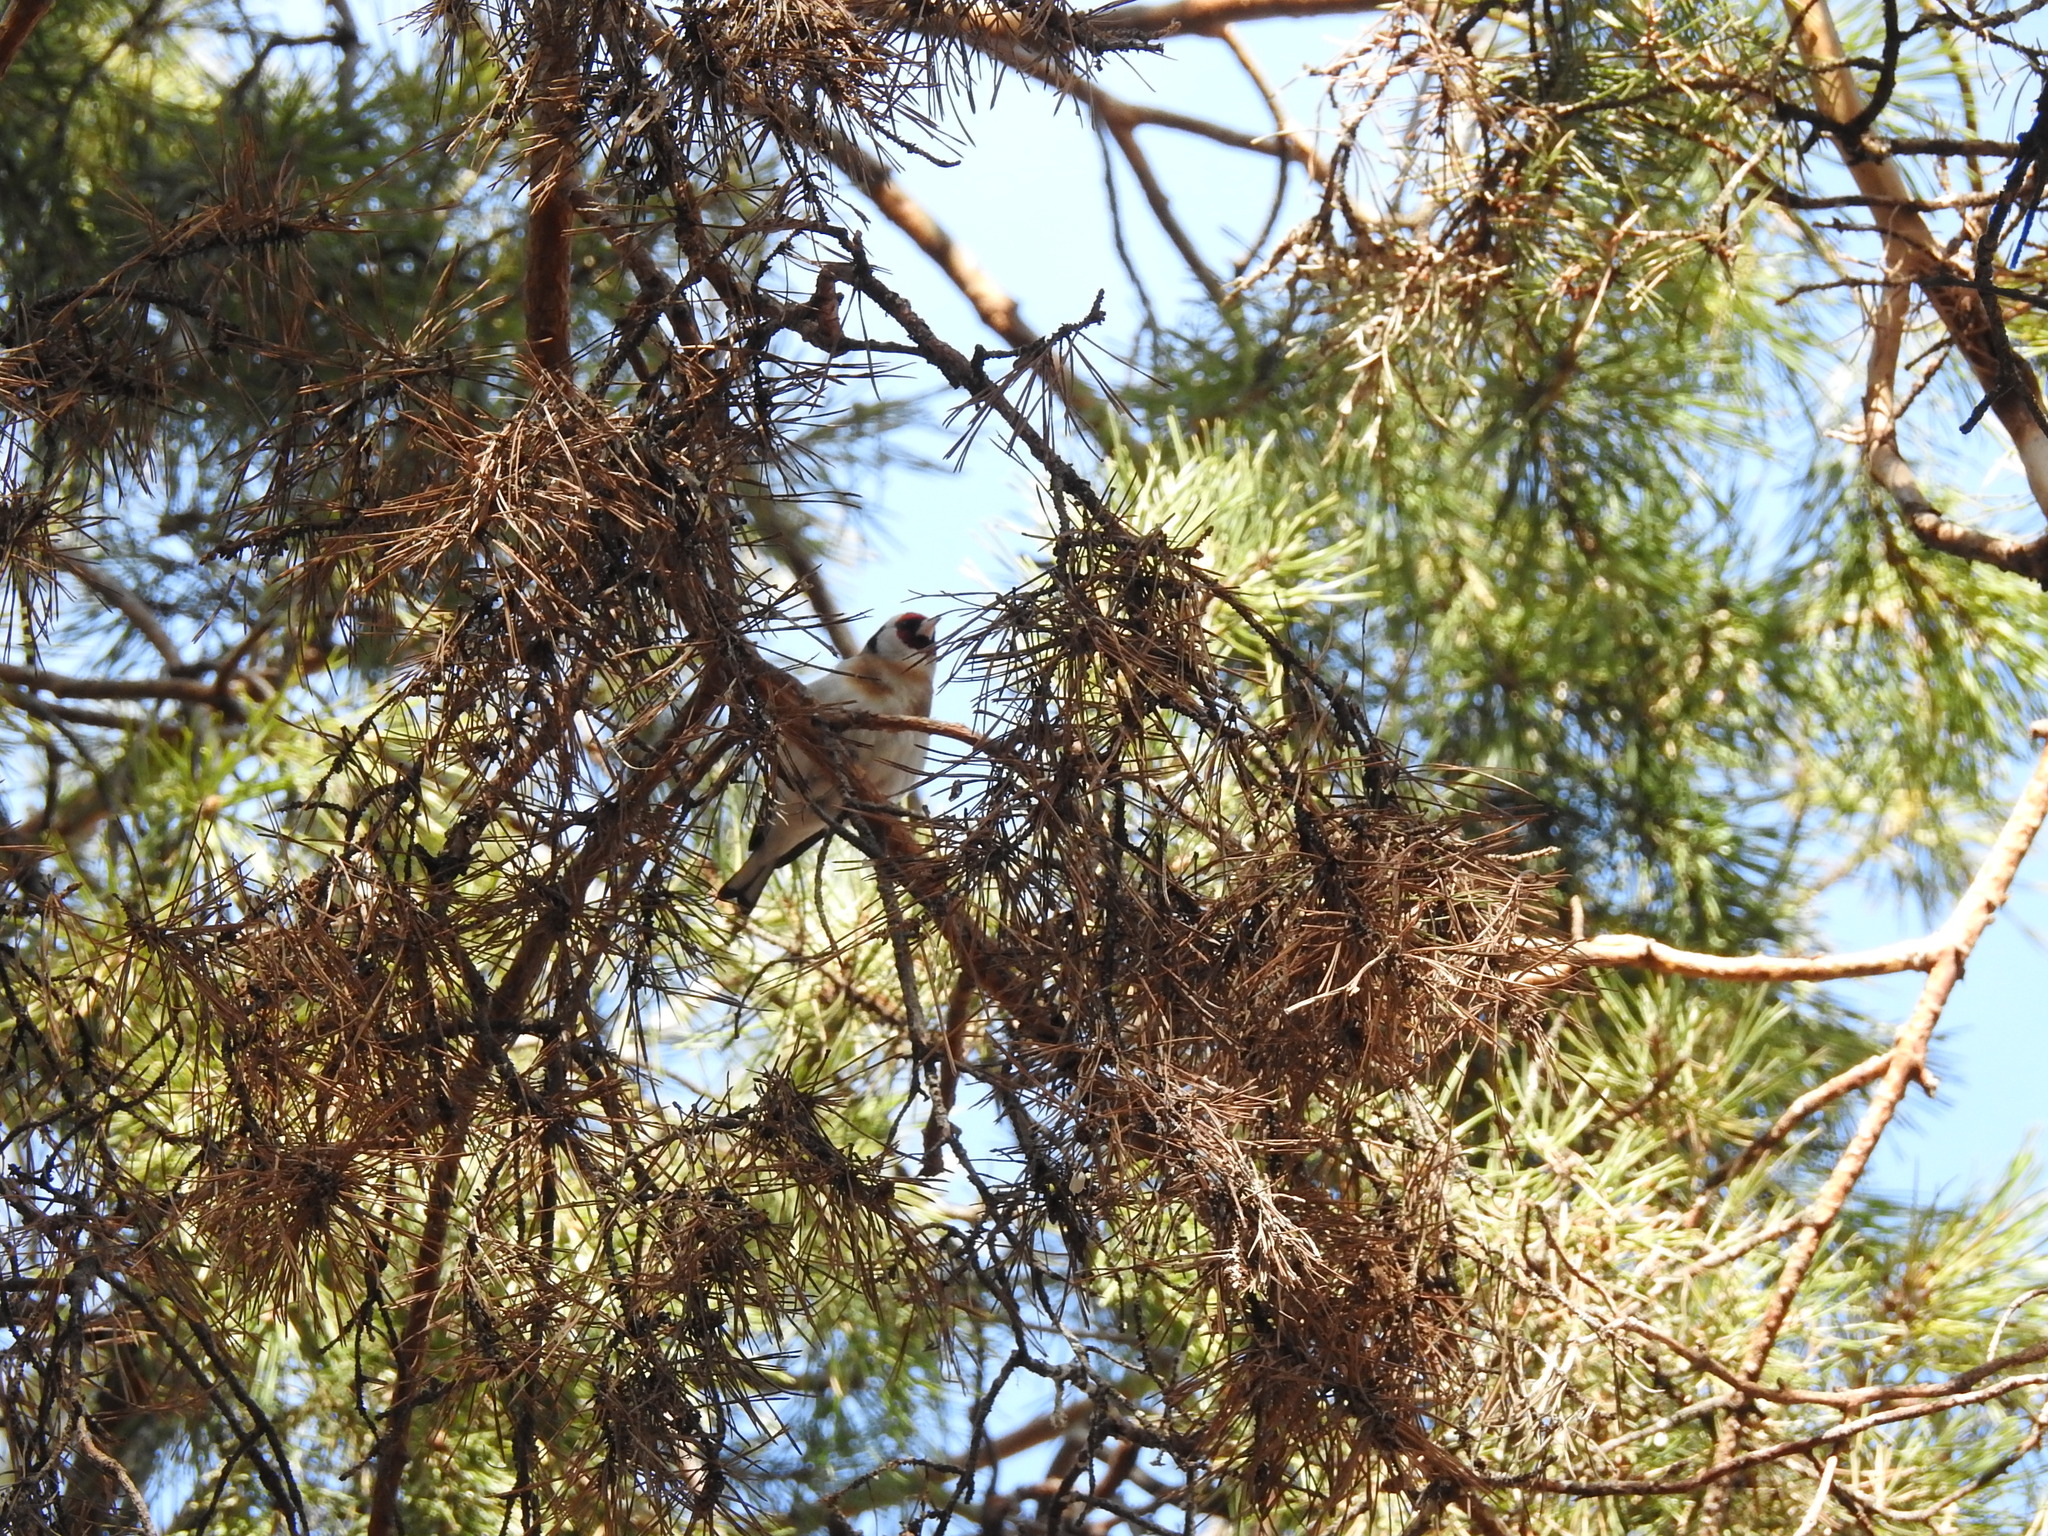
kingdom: Animalia
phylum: Chordata
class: Aves
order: Passeriformes
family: Fringillidae
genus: Carduelis
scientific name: Carduelis carduelis
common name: European goldfinch
